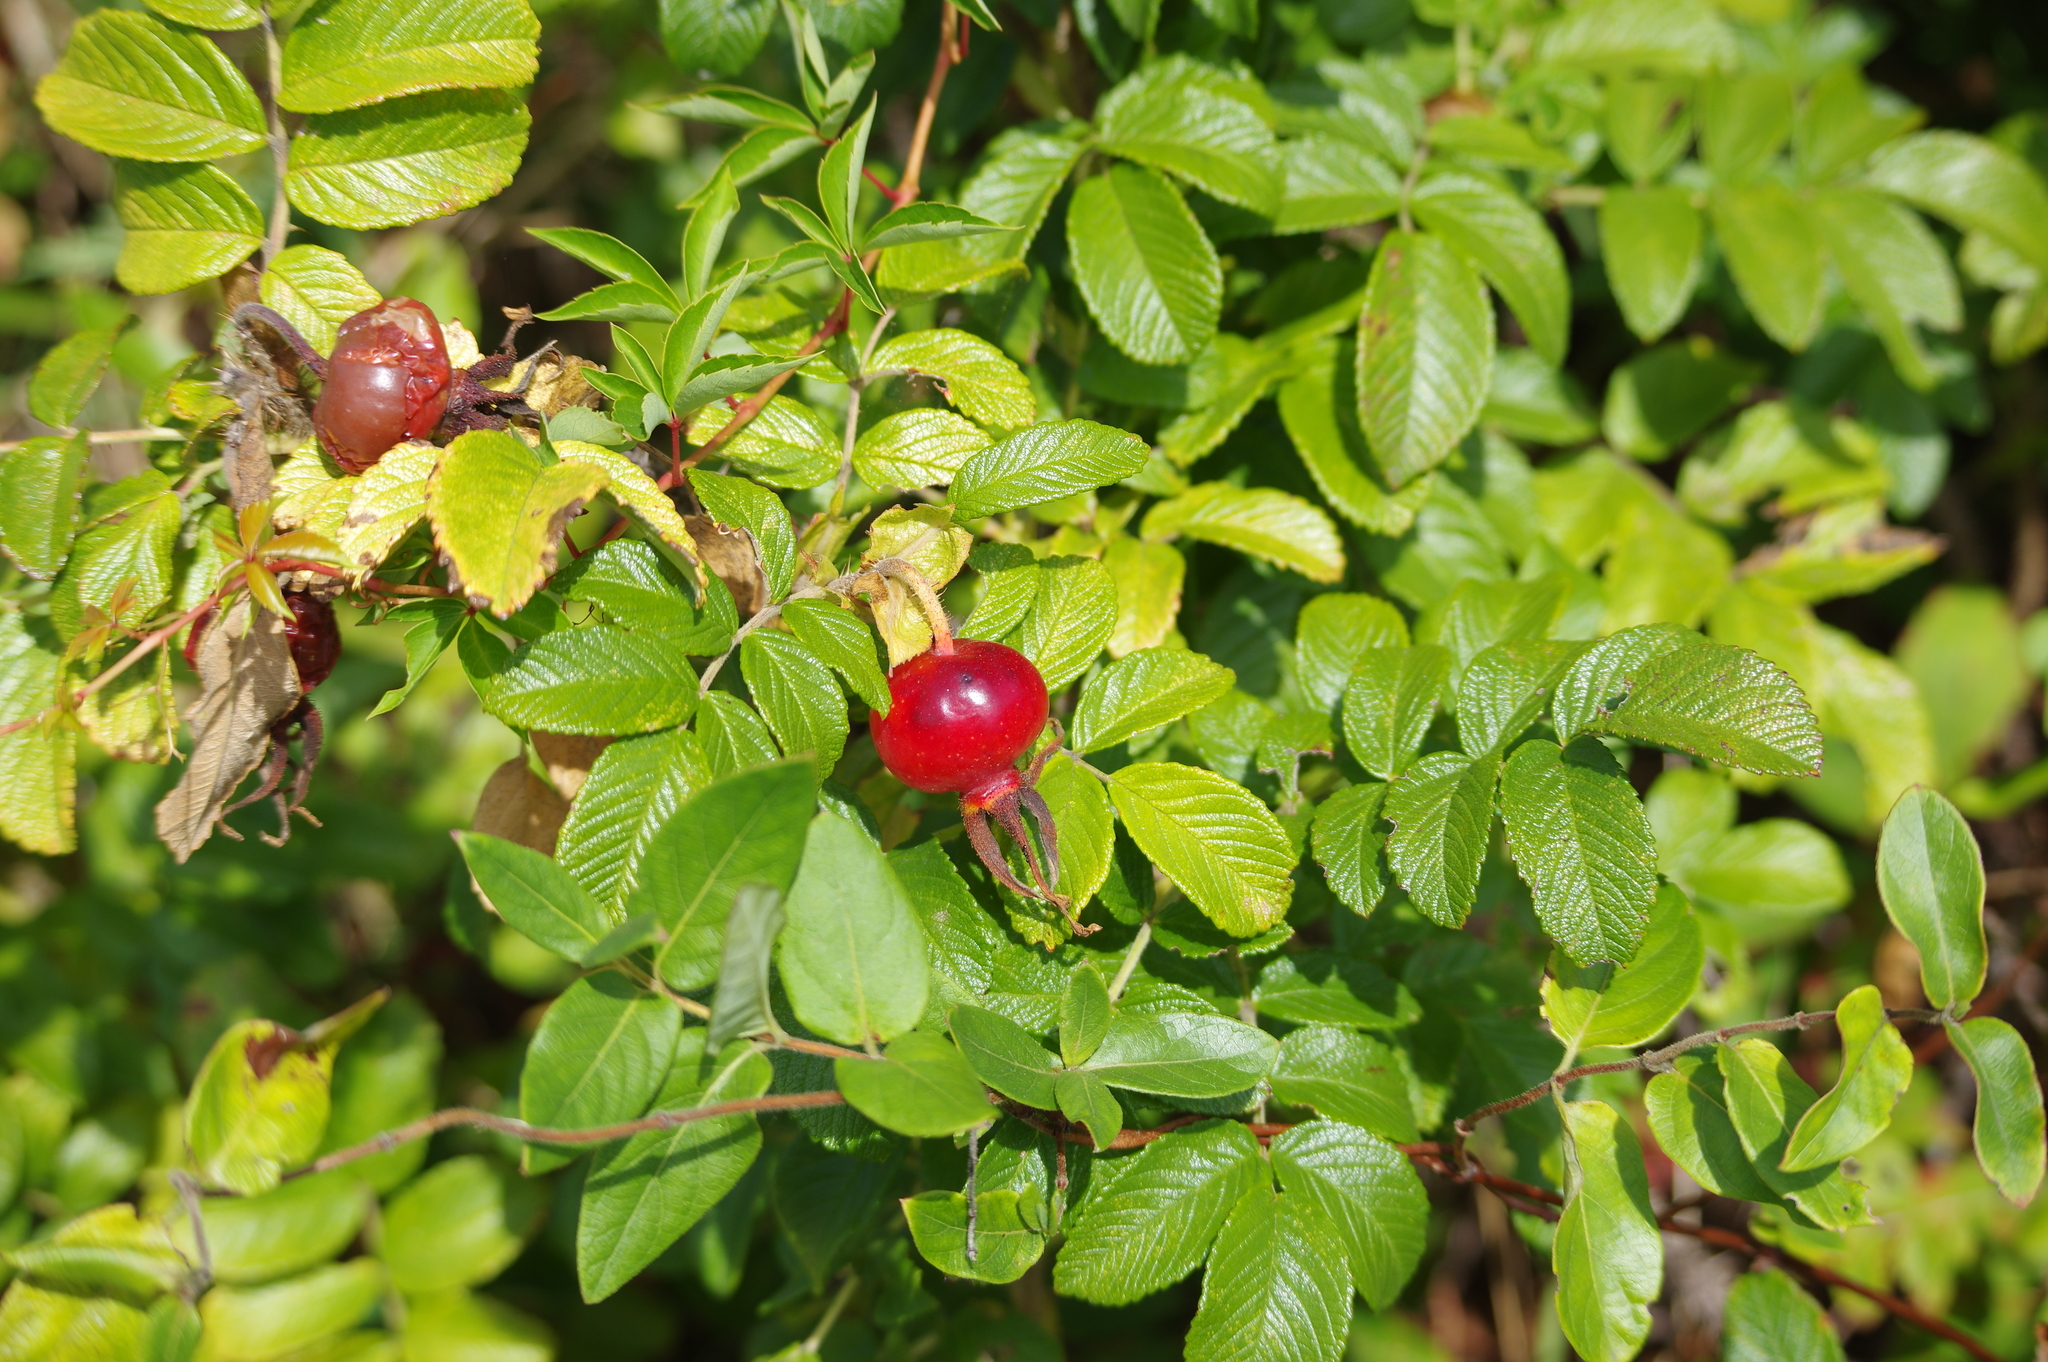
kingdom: Plantae
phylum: Tracheophyta
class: Magnoliopsida
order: Rosales
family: Rosaceae
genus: Rosa
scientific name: Rosa rugosa
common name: Japanese rose
